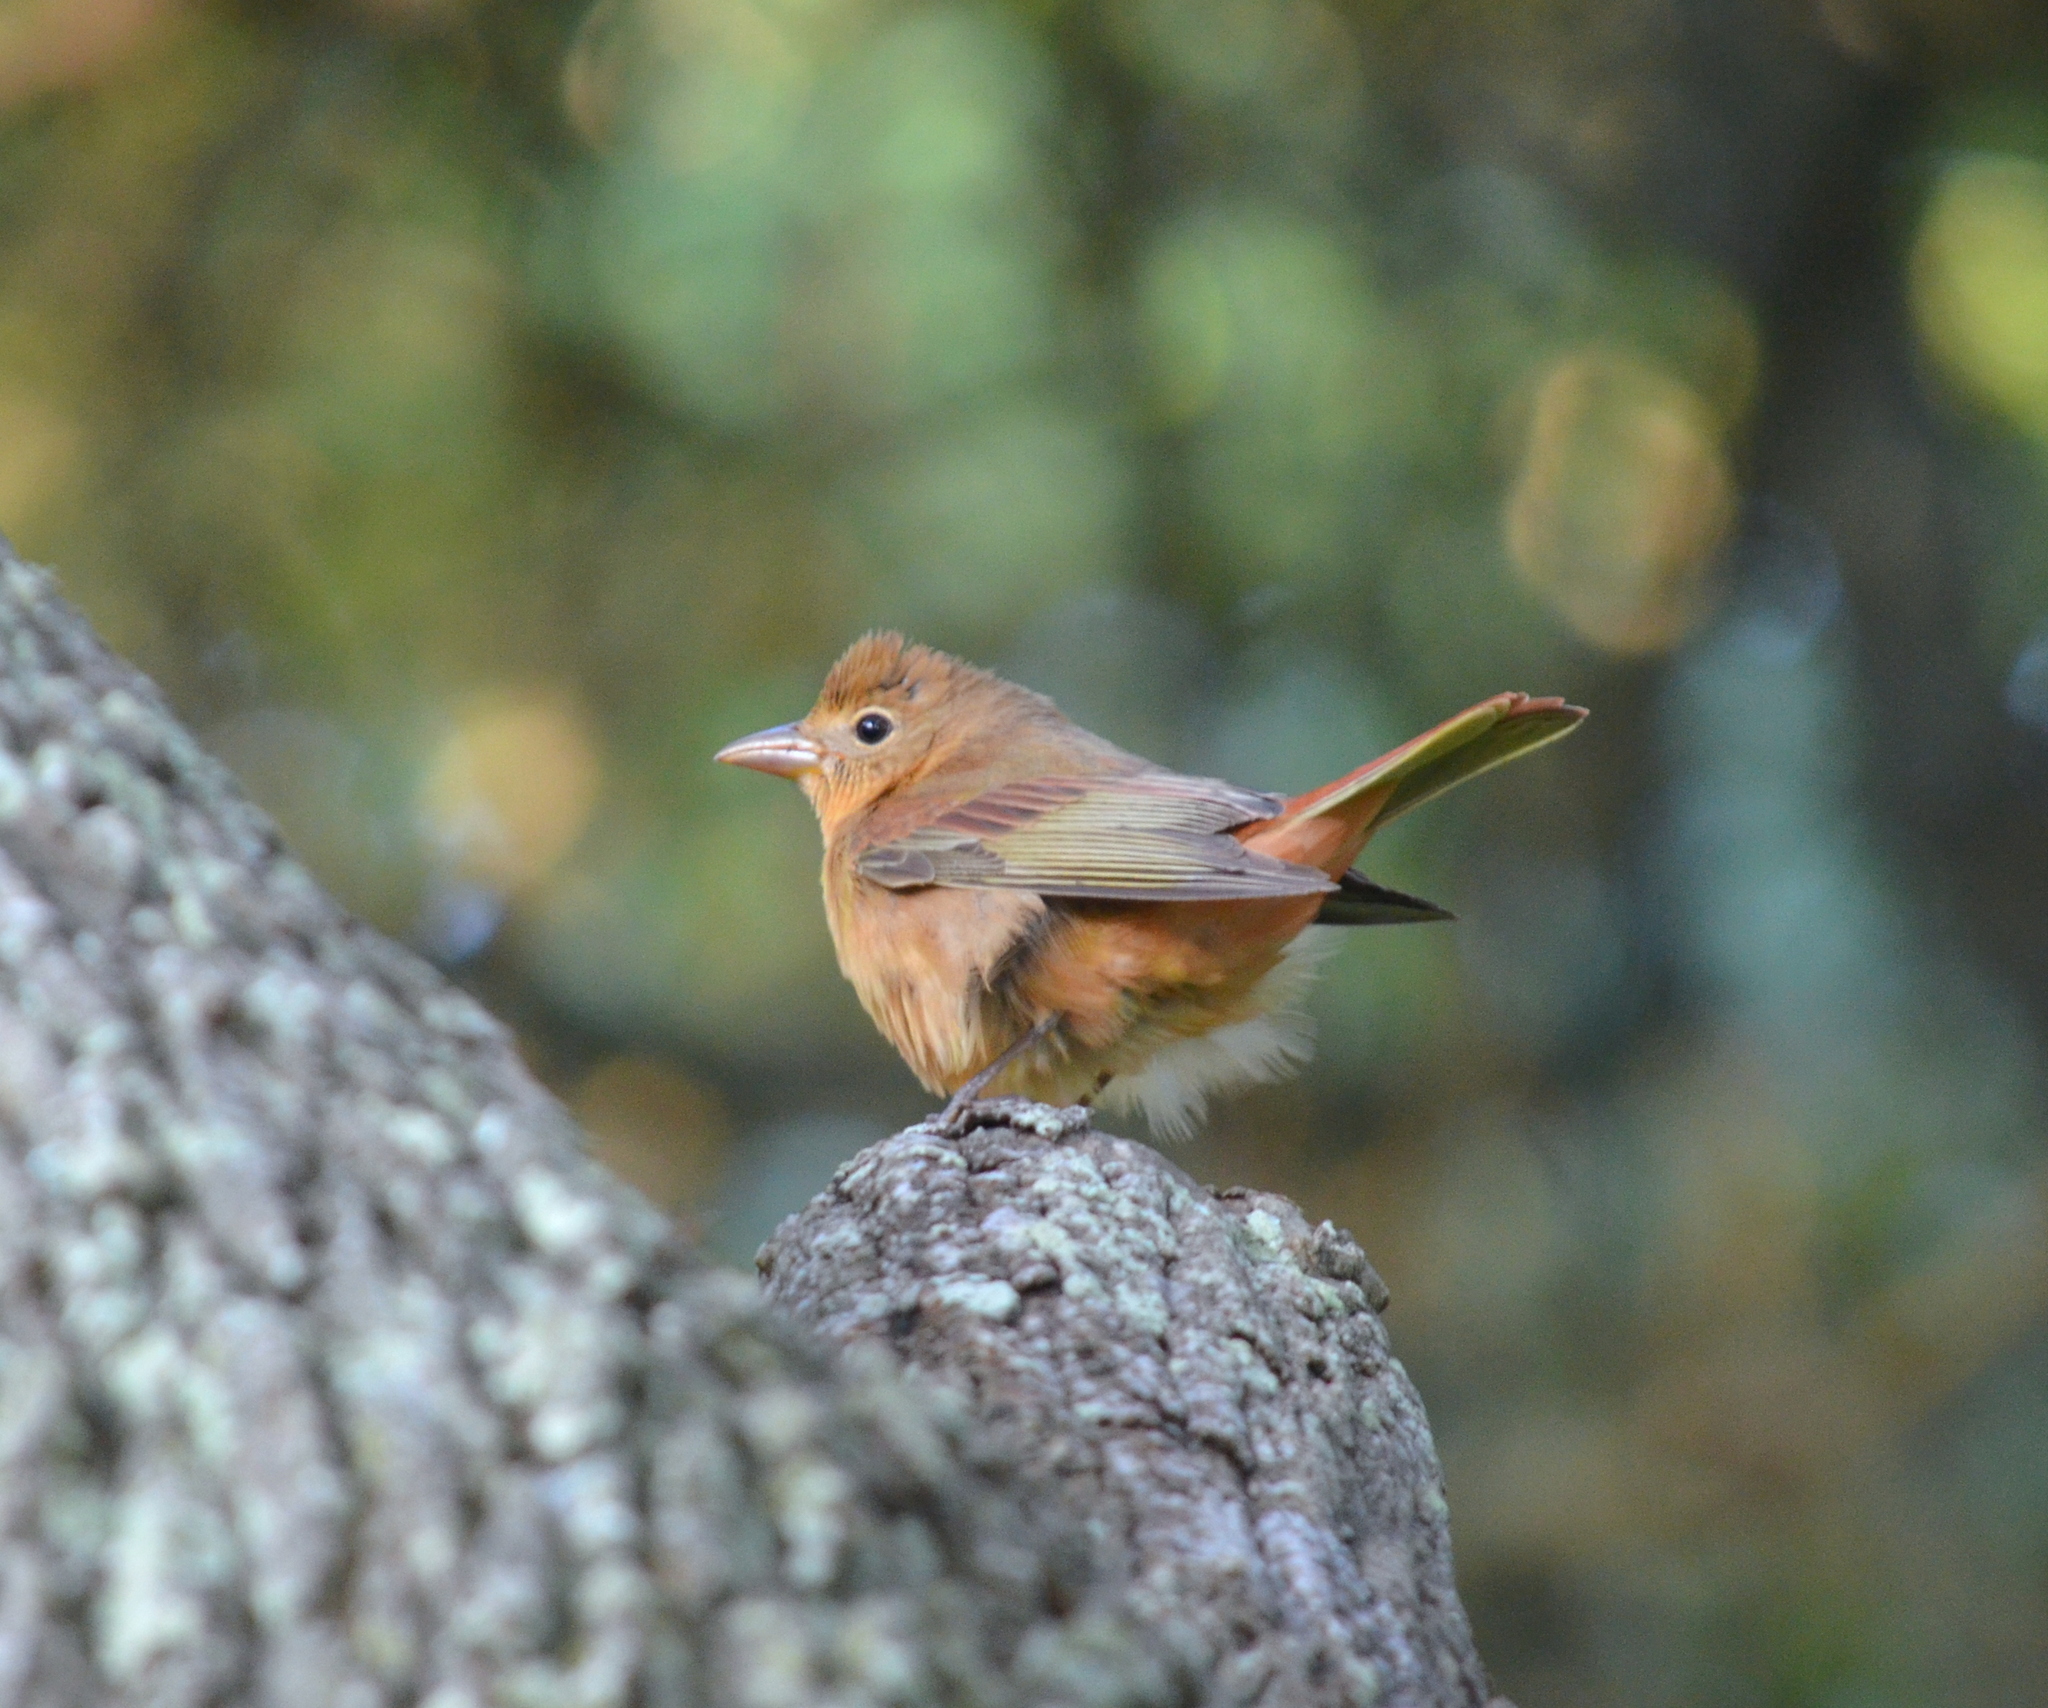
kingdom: Animalia
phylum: Chordata
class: Aves
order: Passeriformes
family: Cardinalidae
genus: Piranga
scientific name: Piranga rubra
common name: Summer tanager
